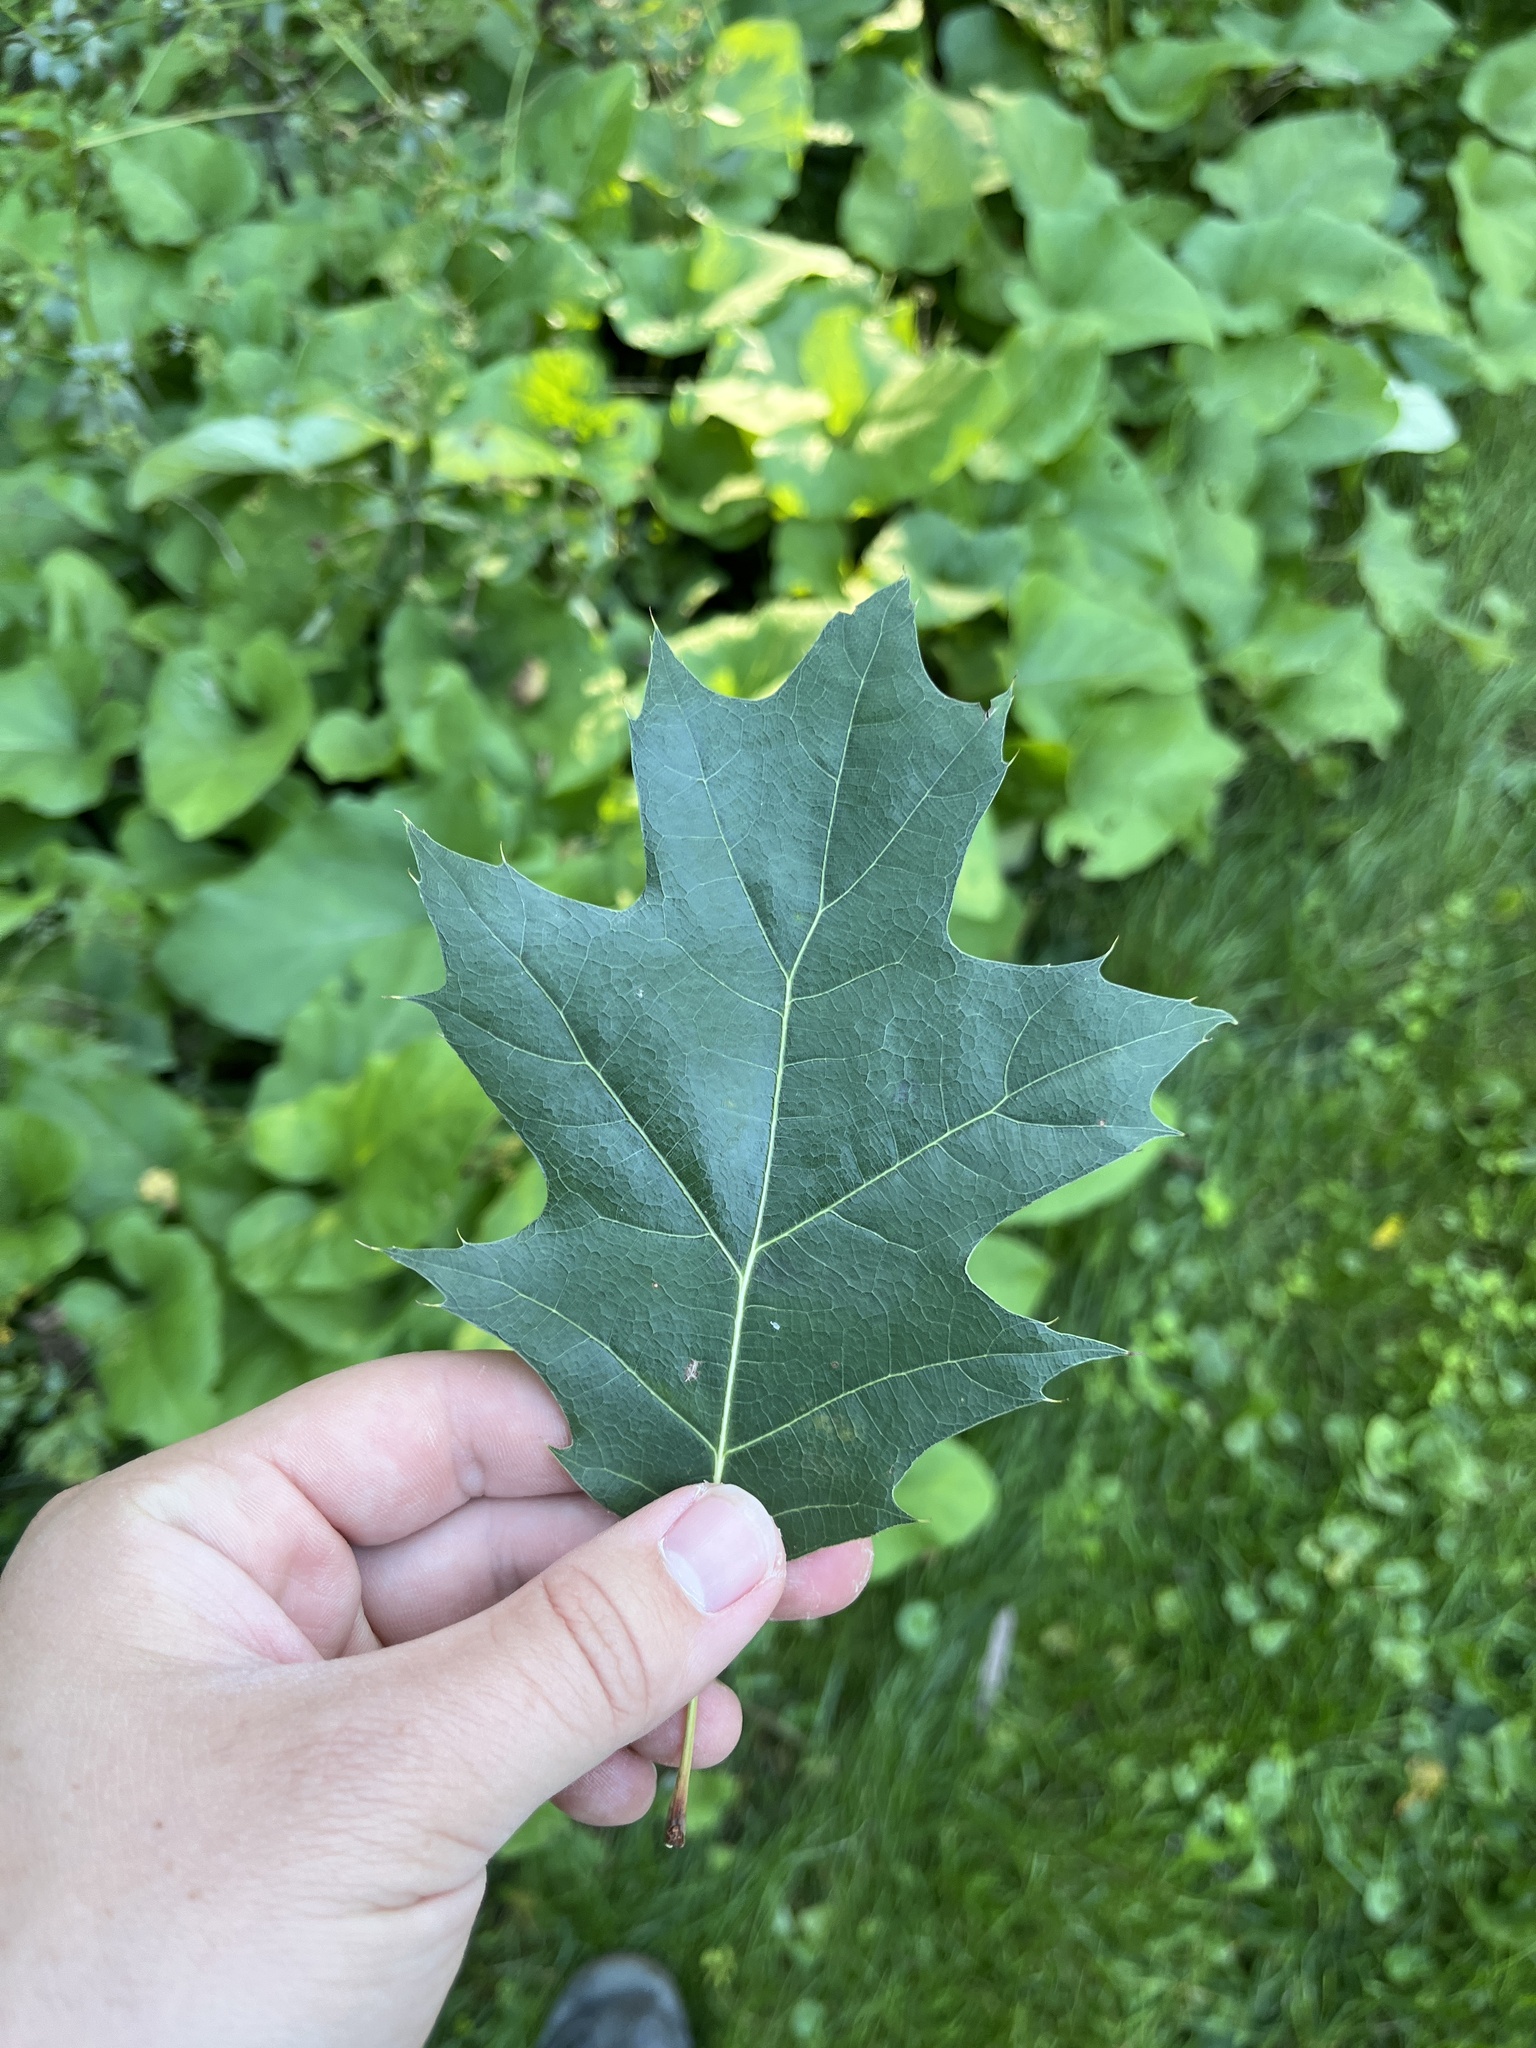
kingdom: Plantae
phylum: Tracheophyta
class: Magnoliopsida
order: Fagales
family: Fagaceae
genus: Quercus
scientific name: Quercus rubra
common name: Red oak
